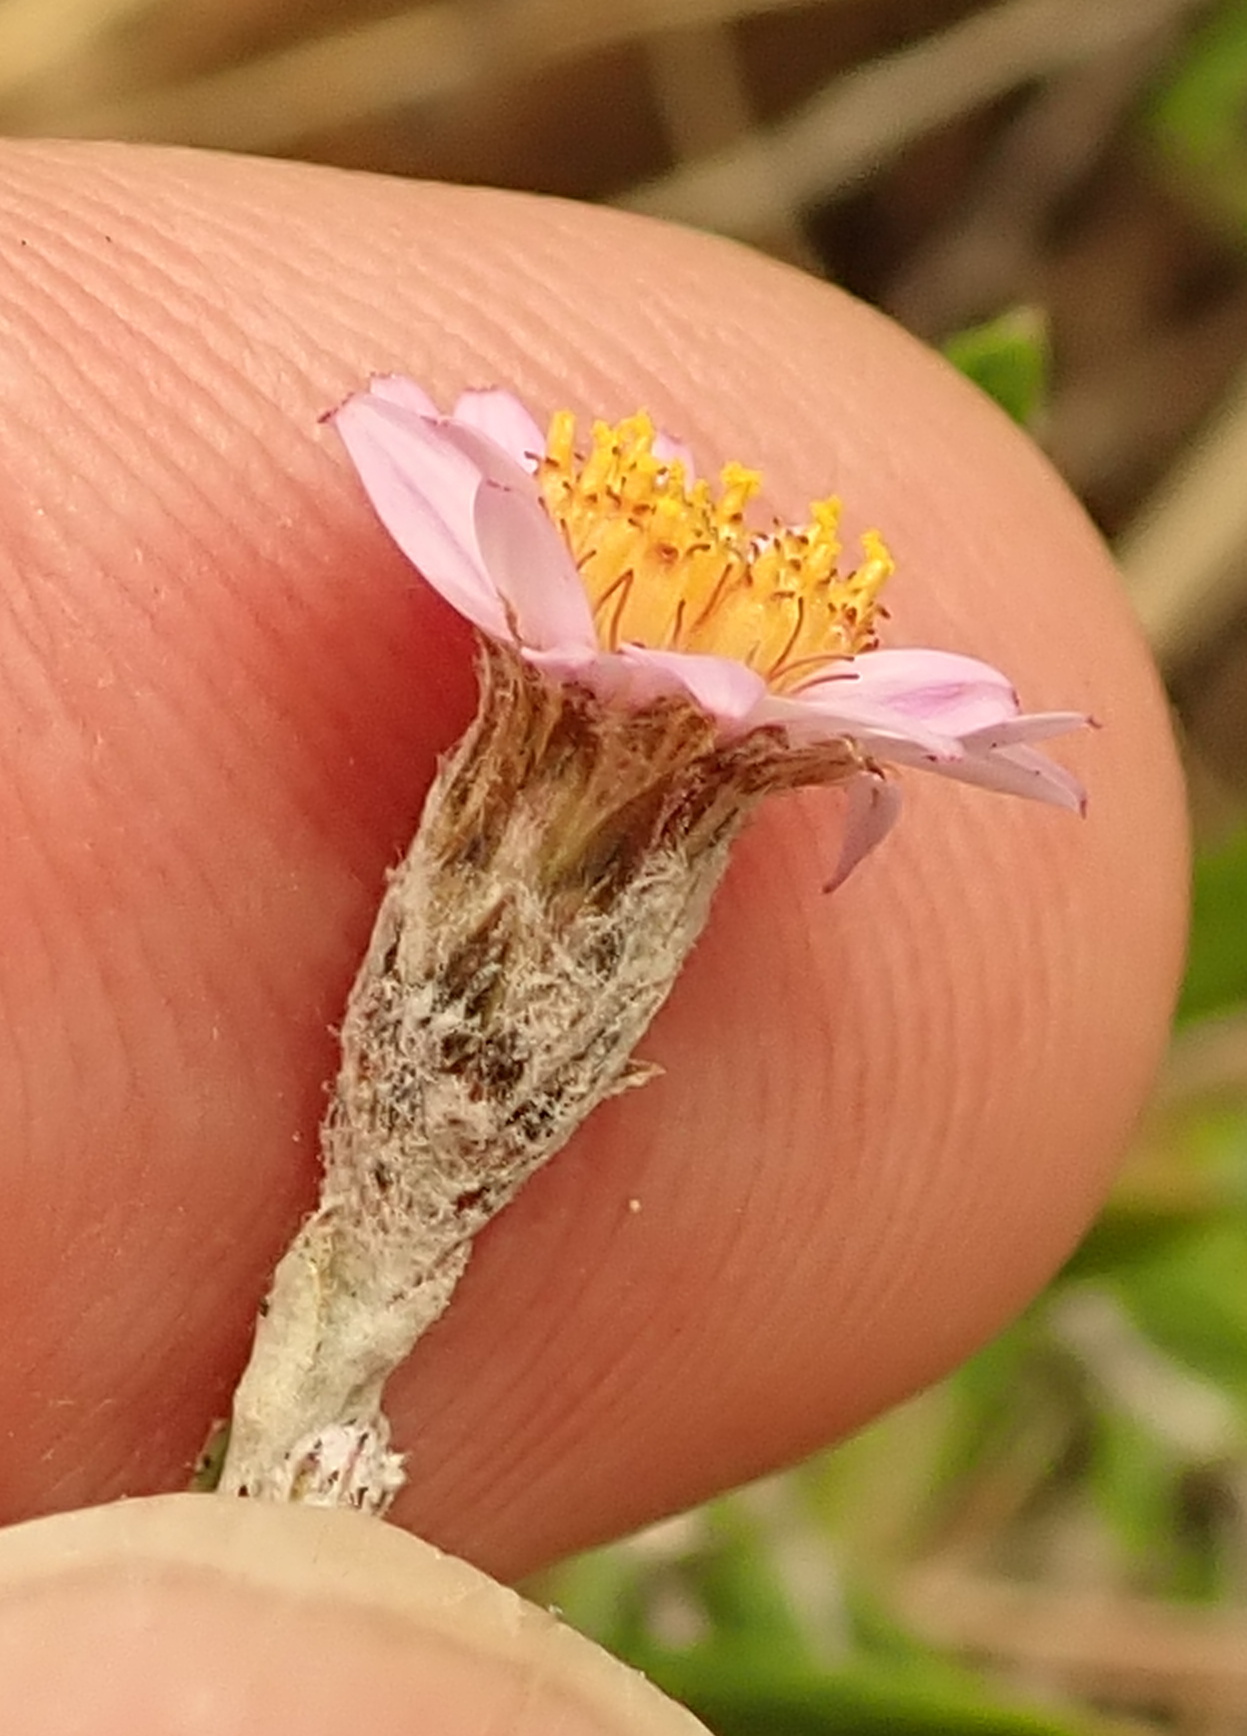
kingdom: Plantae
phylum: Tracheophyta
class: Magnoliopsida
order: Asterales
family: Asteraceae
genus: Athrixia
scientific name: Athrixia phylicoides
